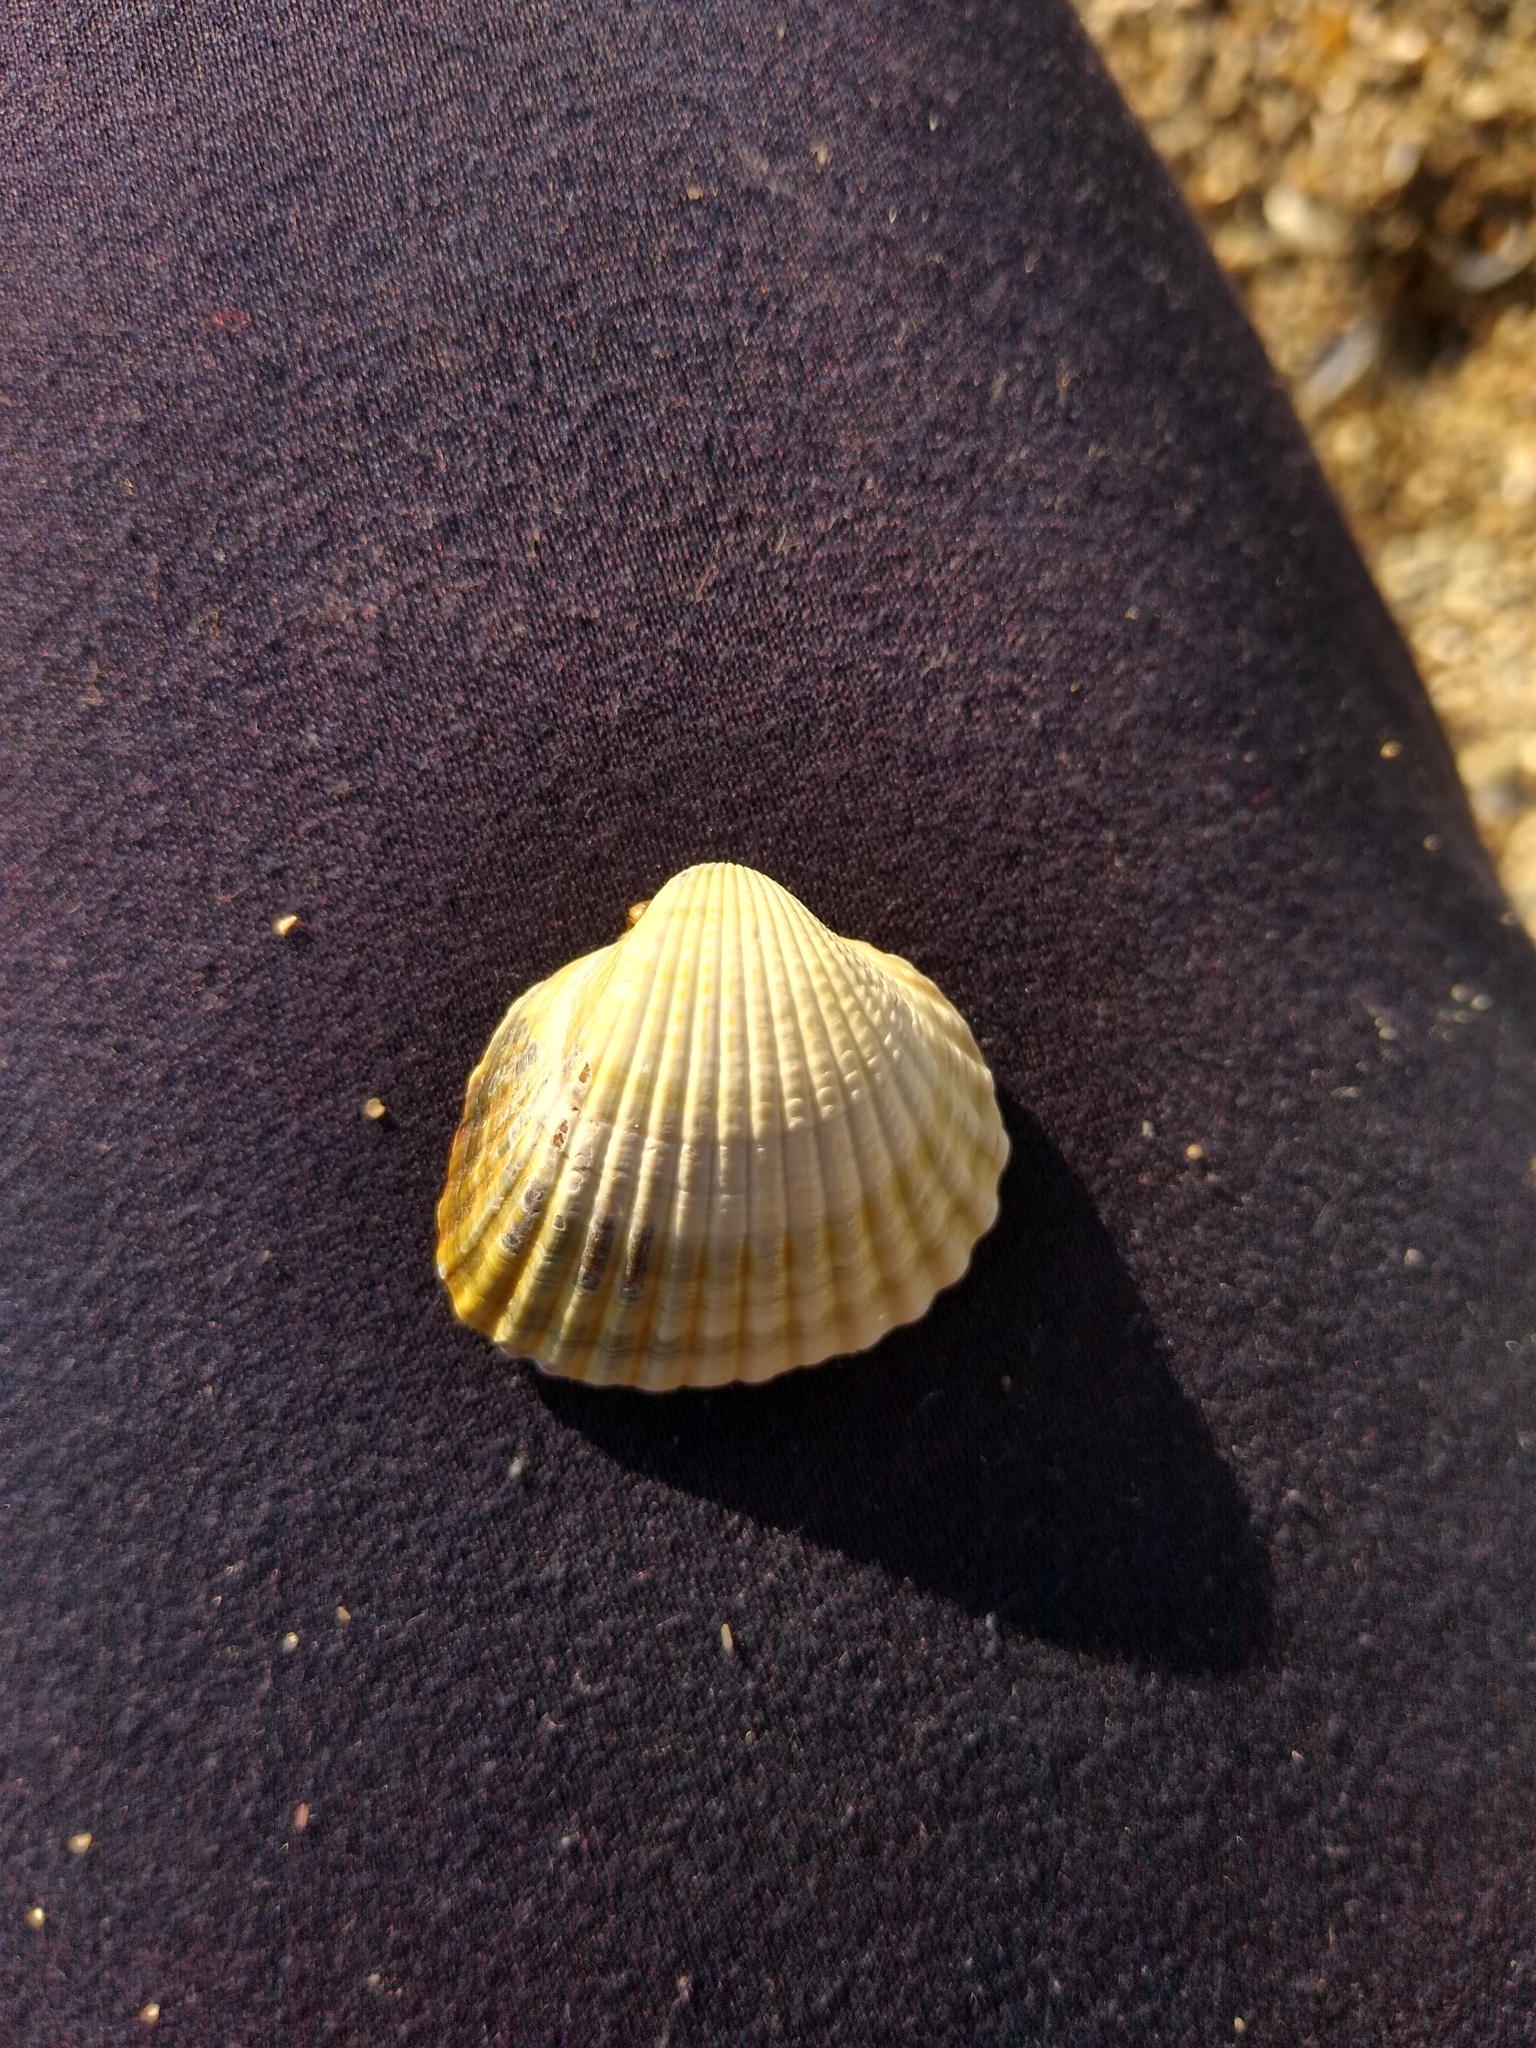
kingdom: Animalia
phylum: Mollusca
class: Bivalvia
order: Cardiida
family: Cardiidae
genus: Cerastoderma
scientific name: Cerastoderma glaucum
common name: Lagoon cockle
